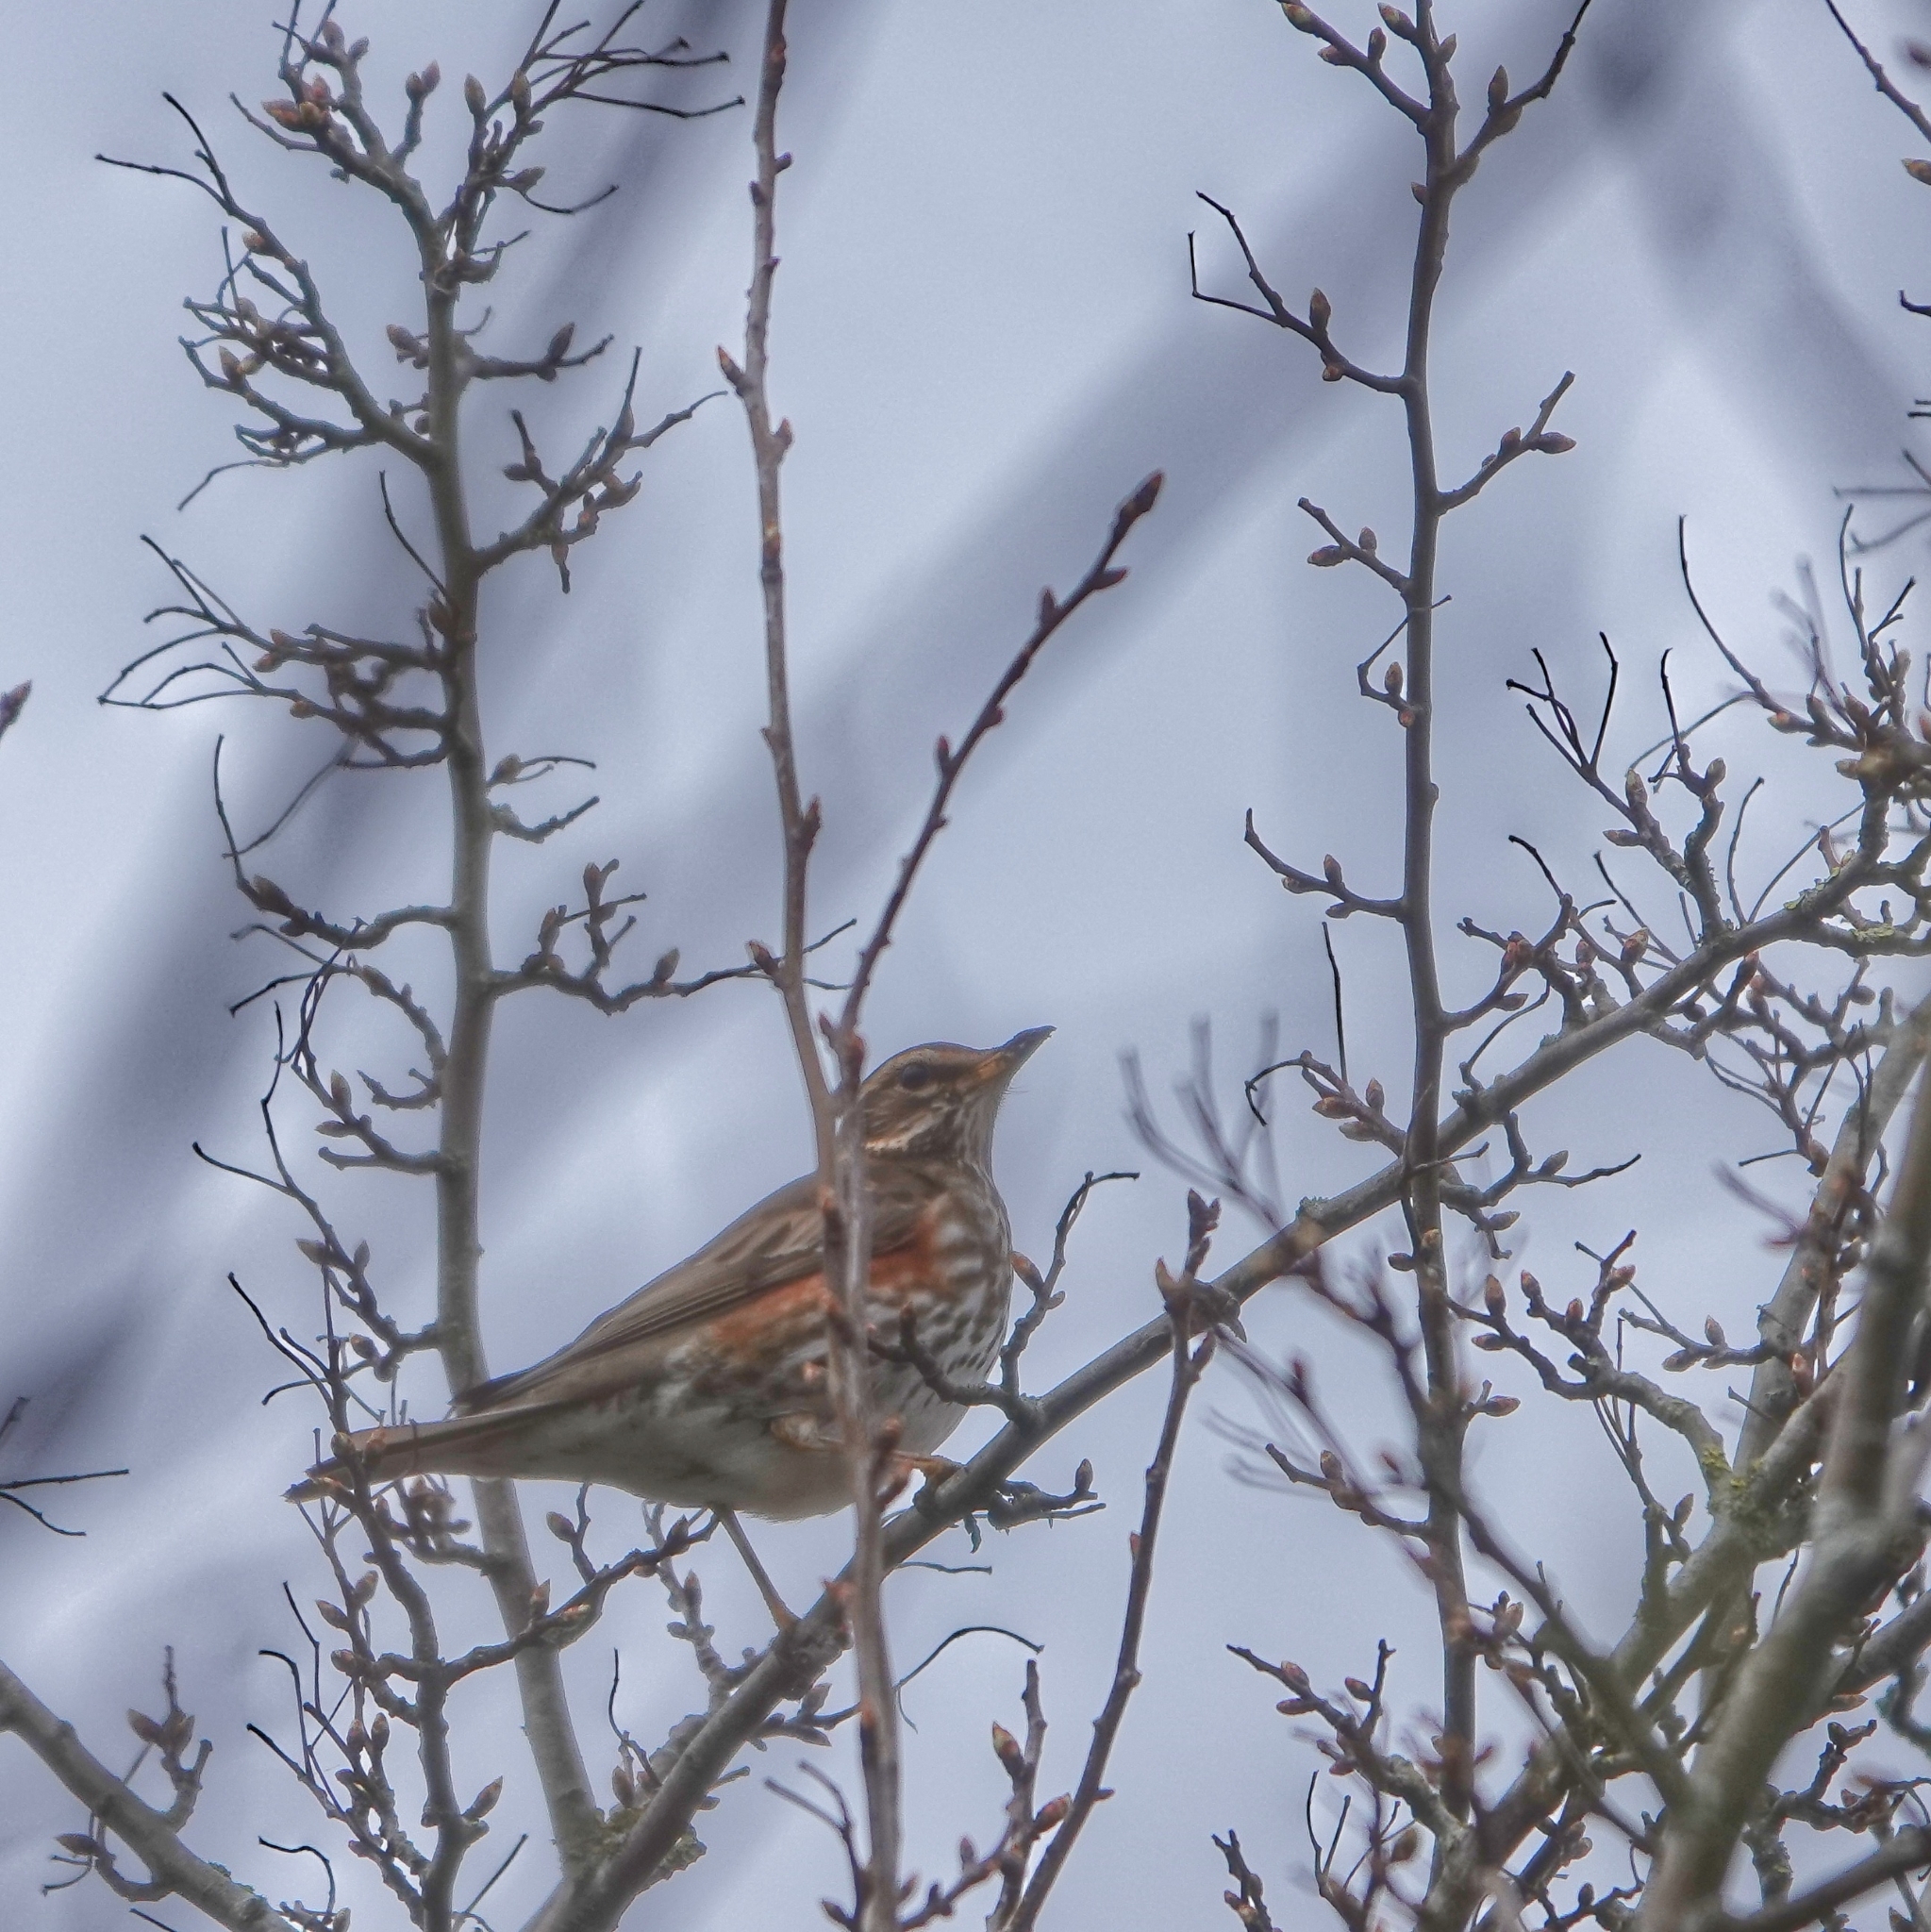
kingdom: Animalia
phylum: Chordata
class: Aves
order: Passeriformes
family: Turdidae
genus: Turdus
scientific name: Turdus iliacus
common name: Redwing
